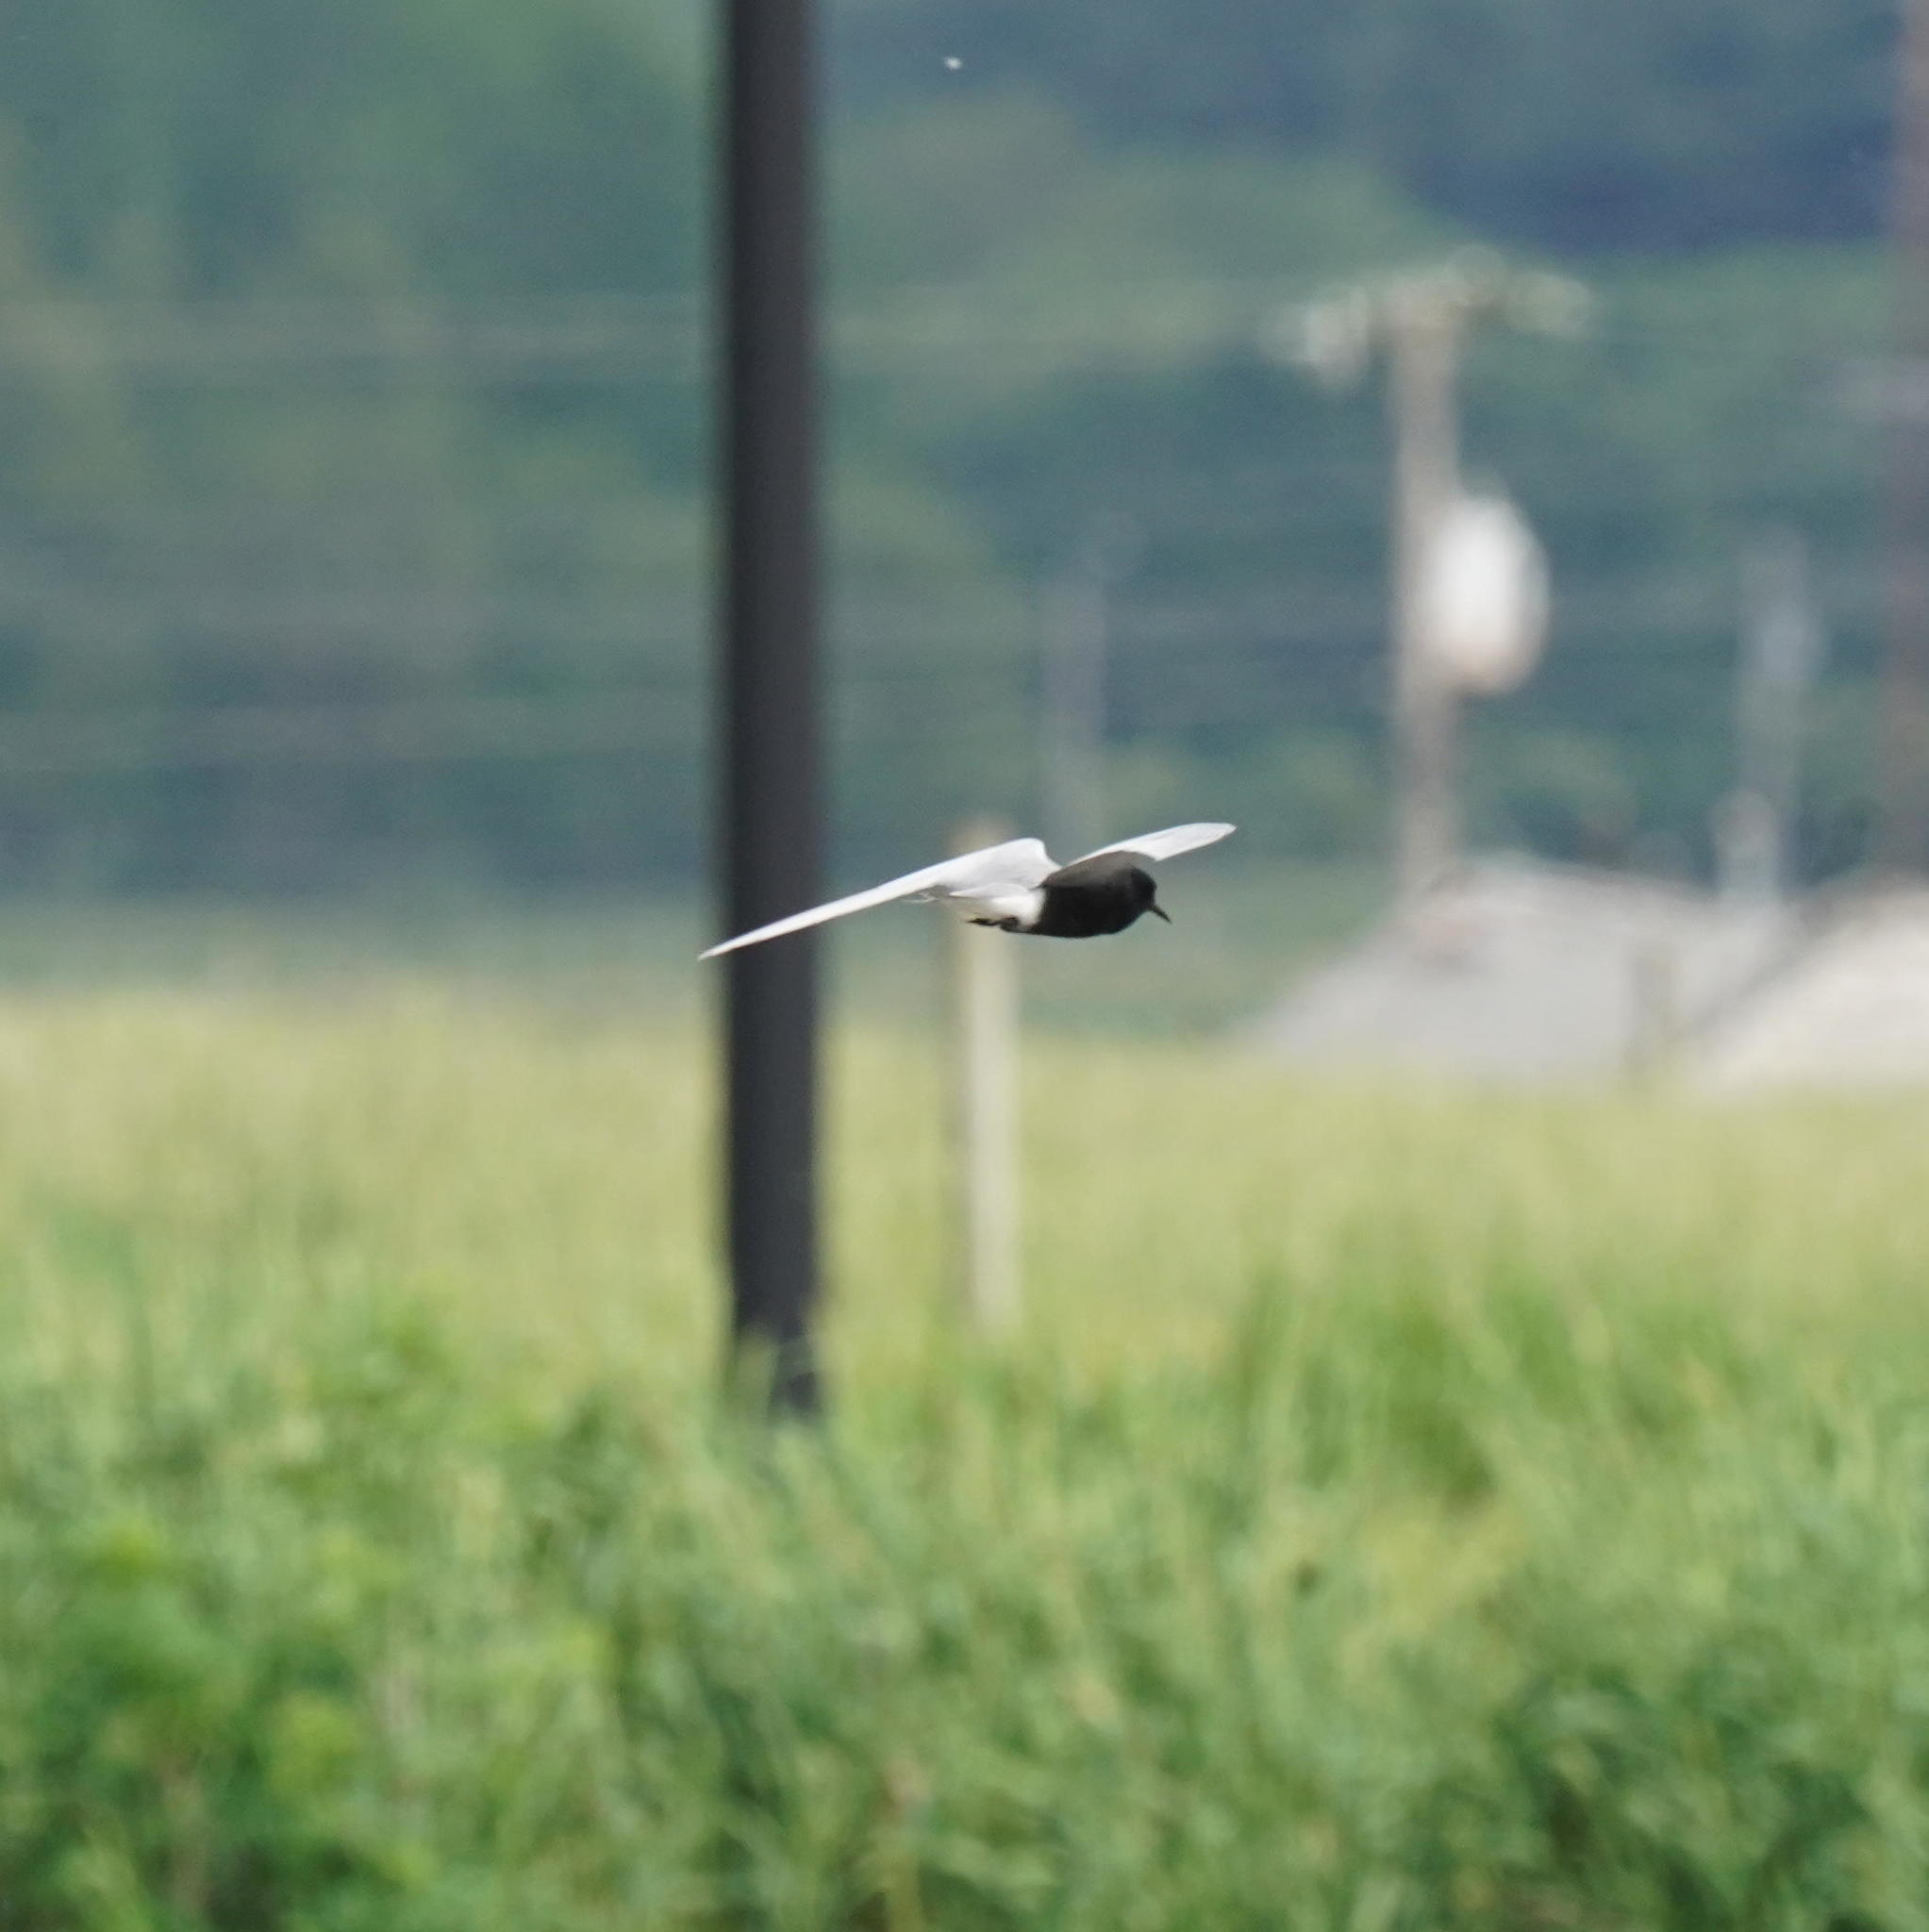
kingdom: Animalia
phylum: Chordata
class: Aves
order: Charadriiformes
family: Laridae
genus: Chlidonias
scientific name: Chlidonias niger
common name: Black tern
